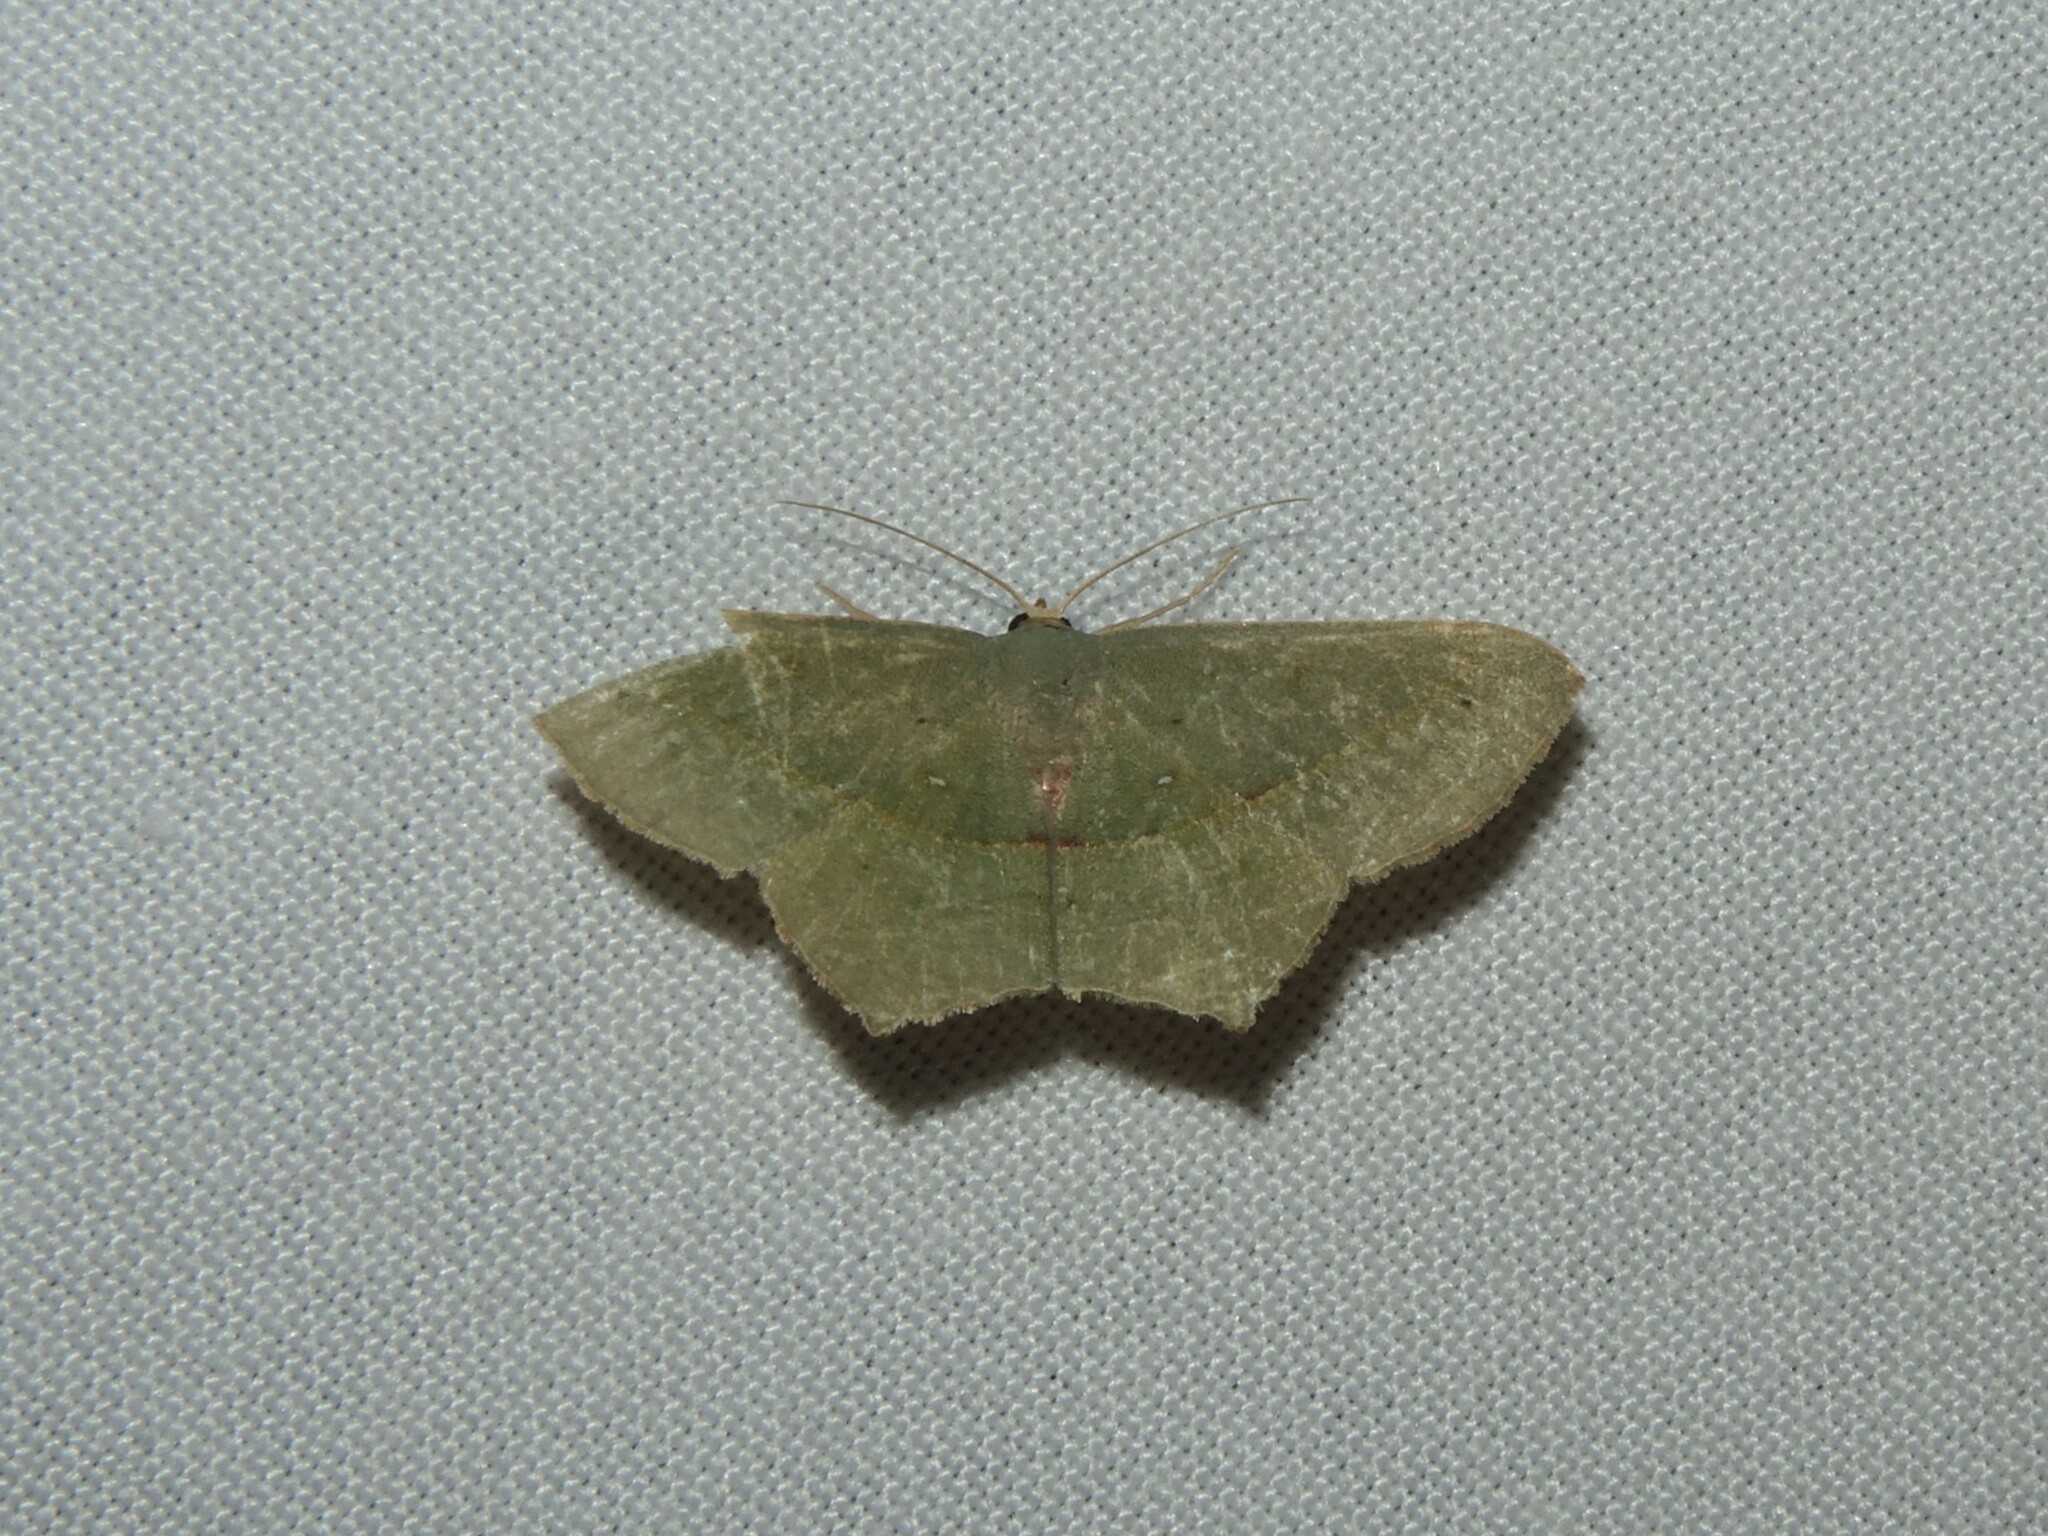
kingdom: Animalia
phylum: Arthropoda
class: Insecta
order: Lepidoptera
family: Geometridae
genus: Traminda
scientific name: Traminda mundissima
